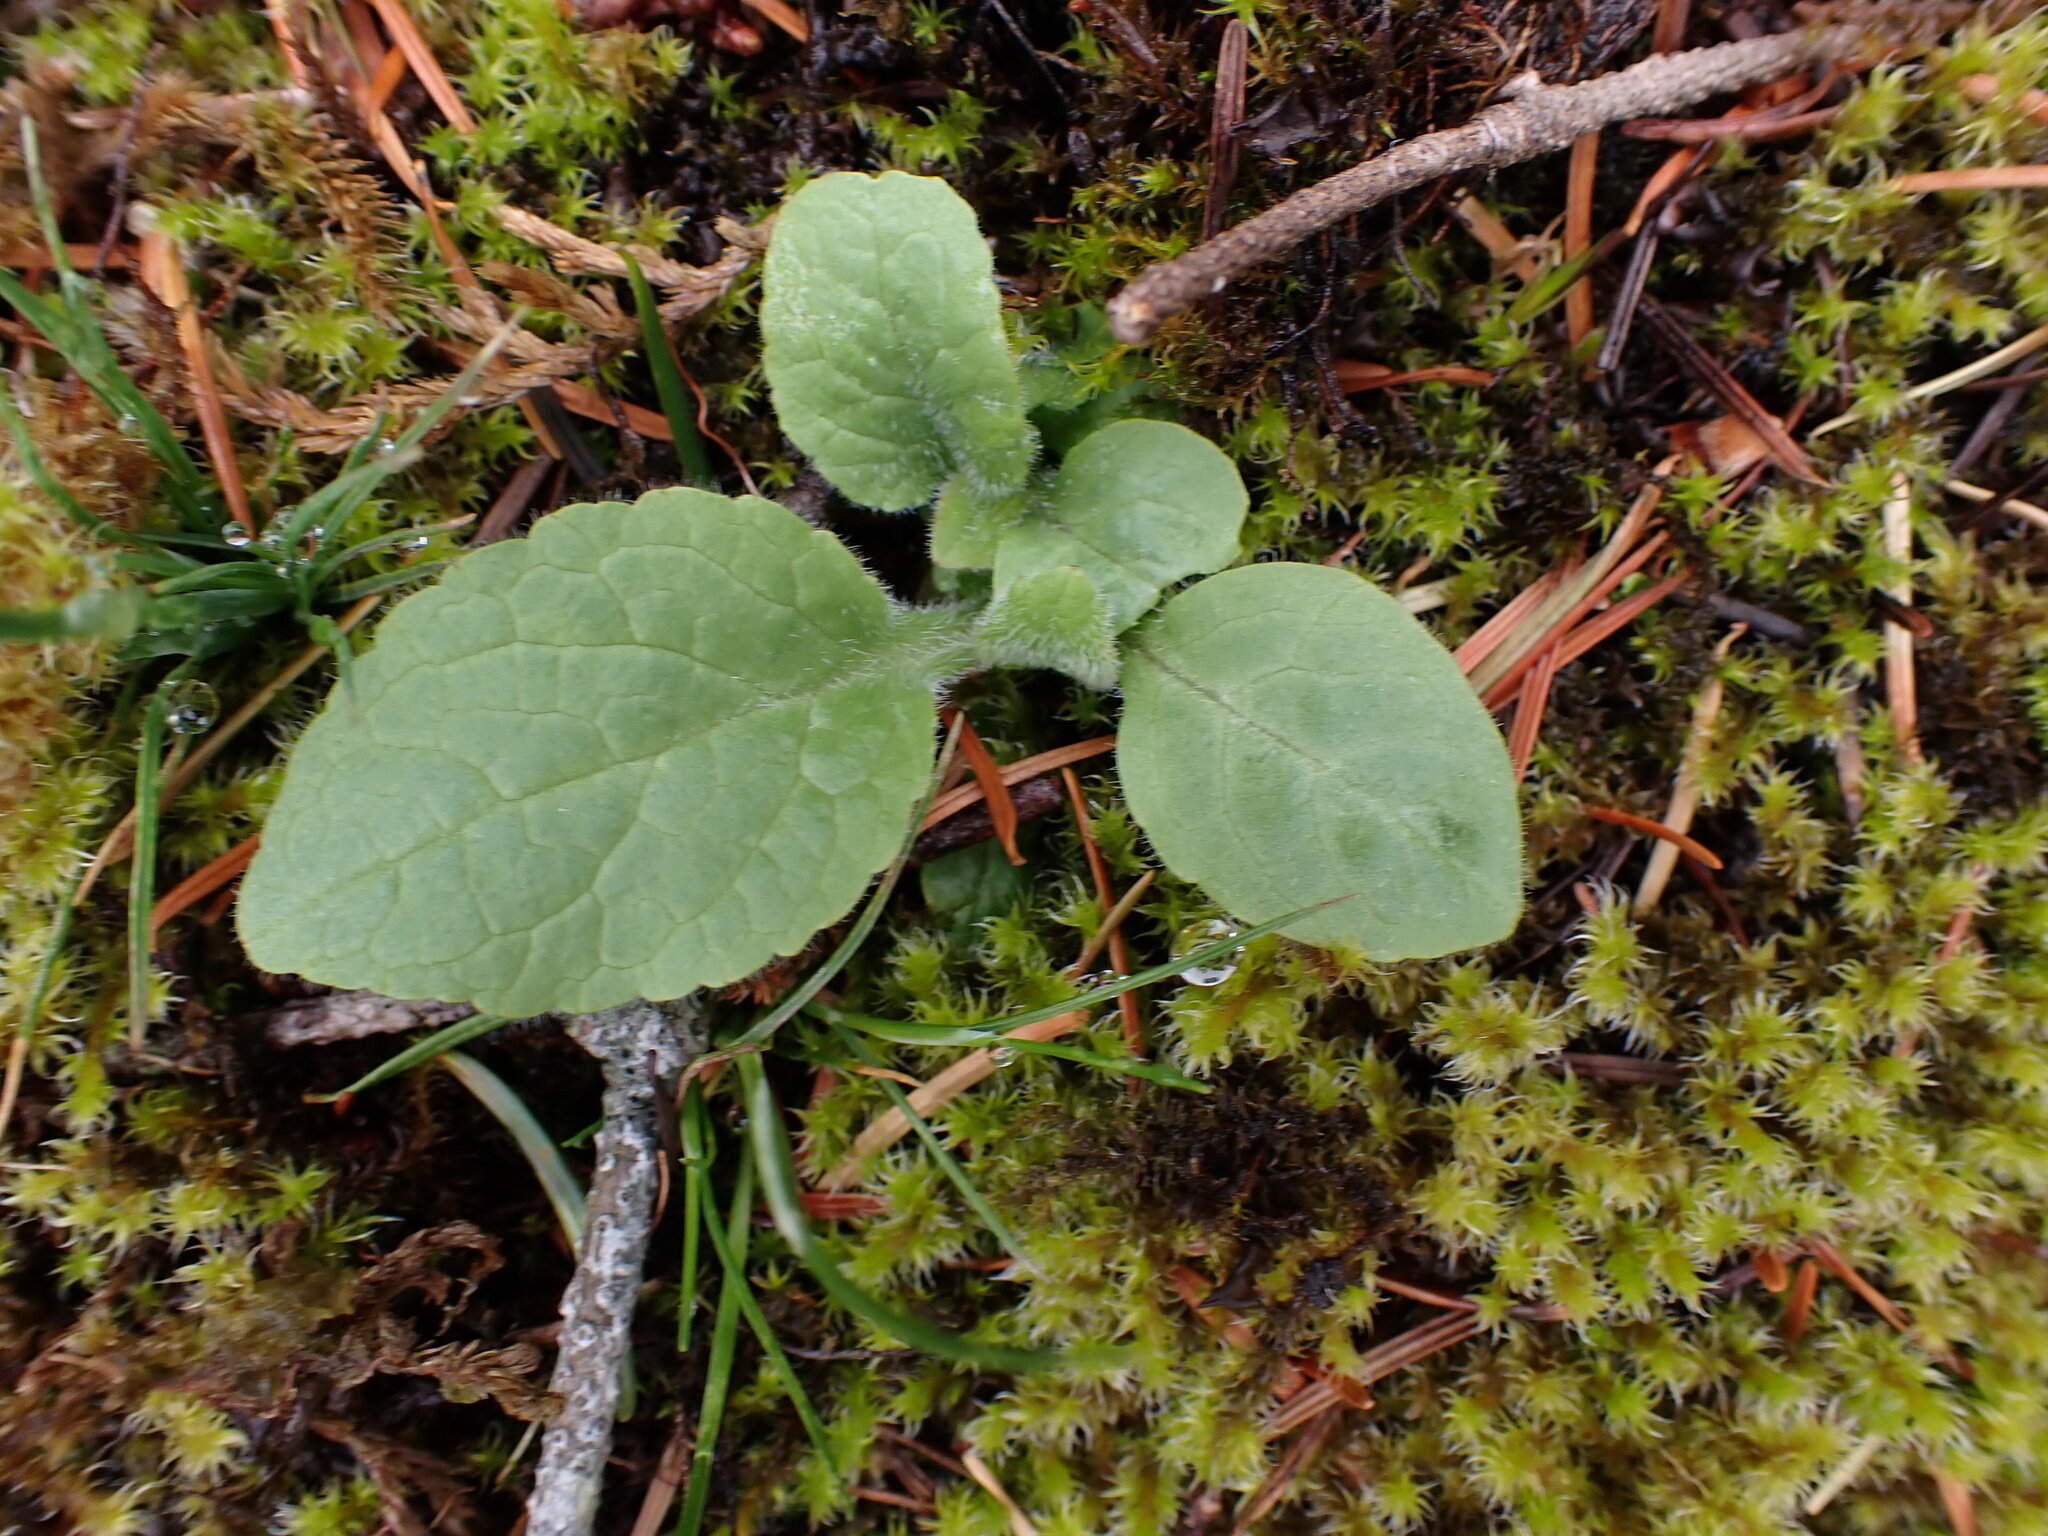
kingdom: Plantae
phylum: Tracheophyta
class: Magnoliopsida
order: Lamiales
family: Plantaginaceae
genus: Digitalis
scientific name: Digitalis purpurea
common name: Foxglove
